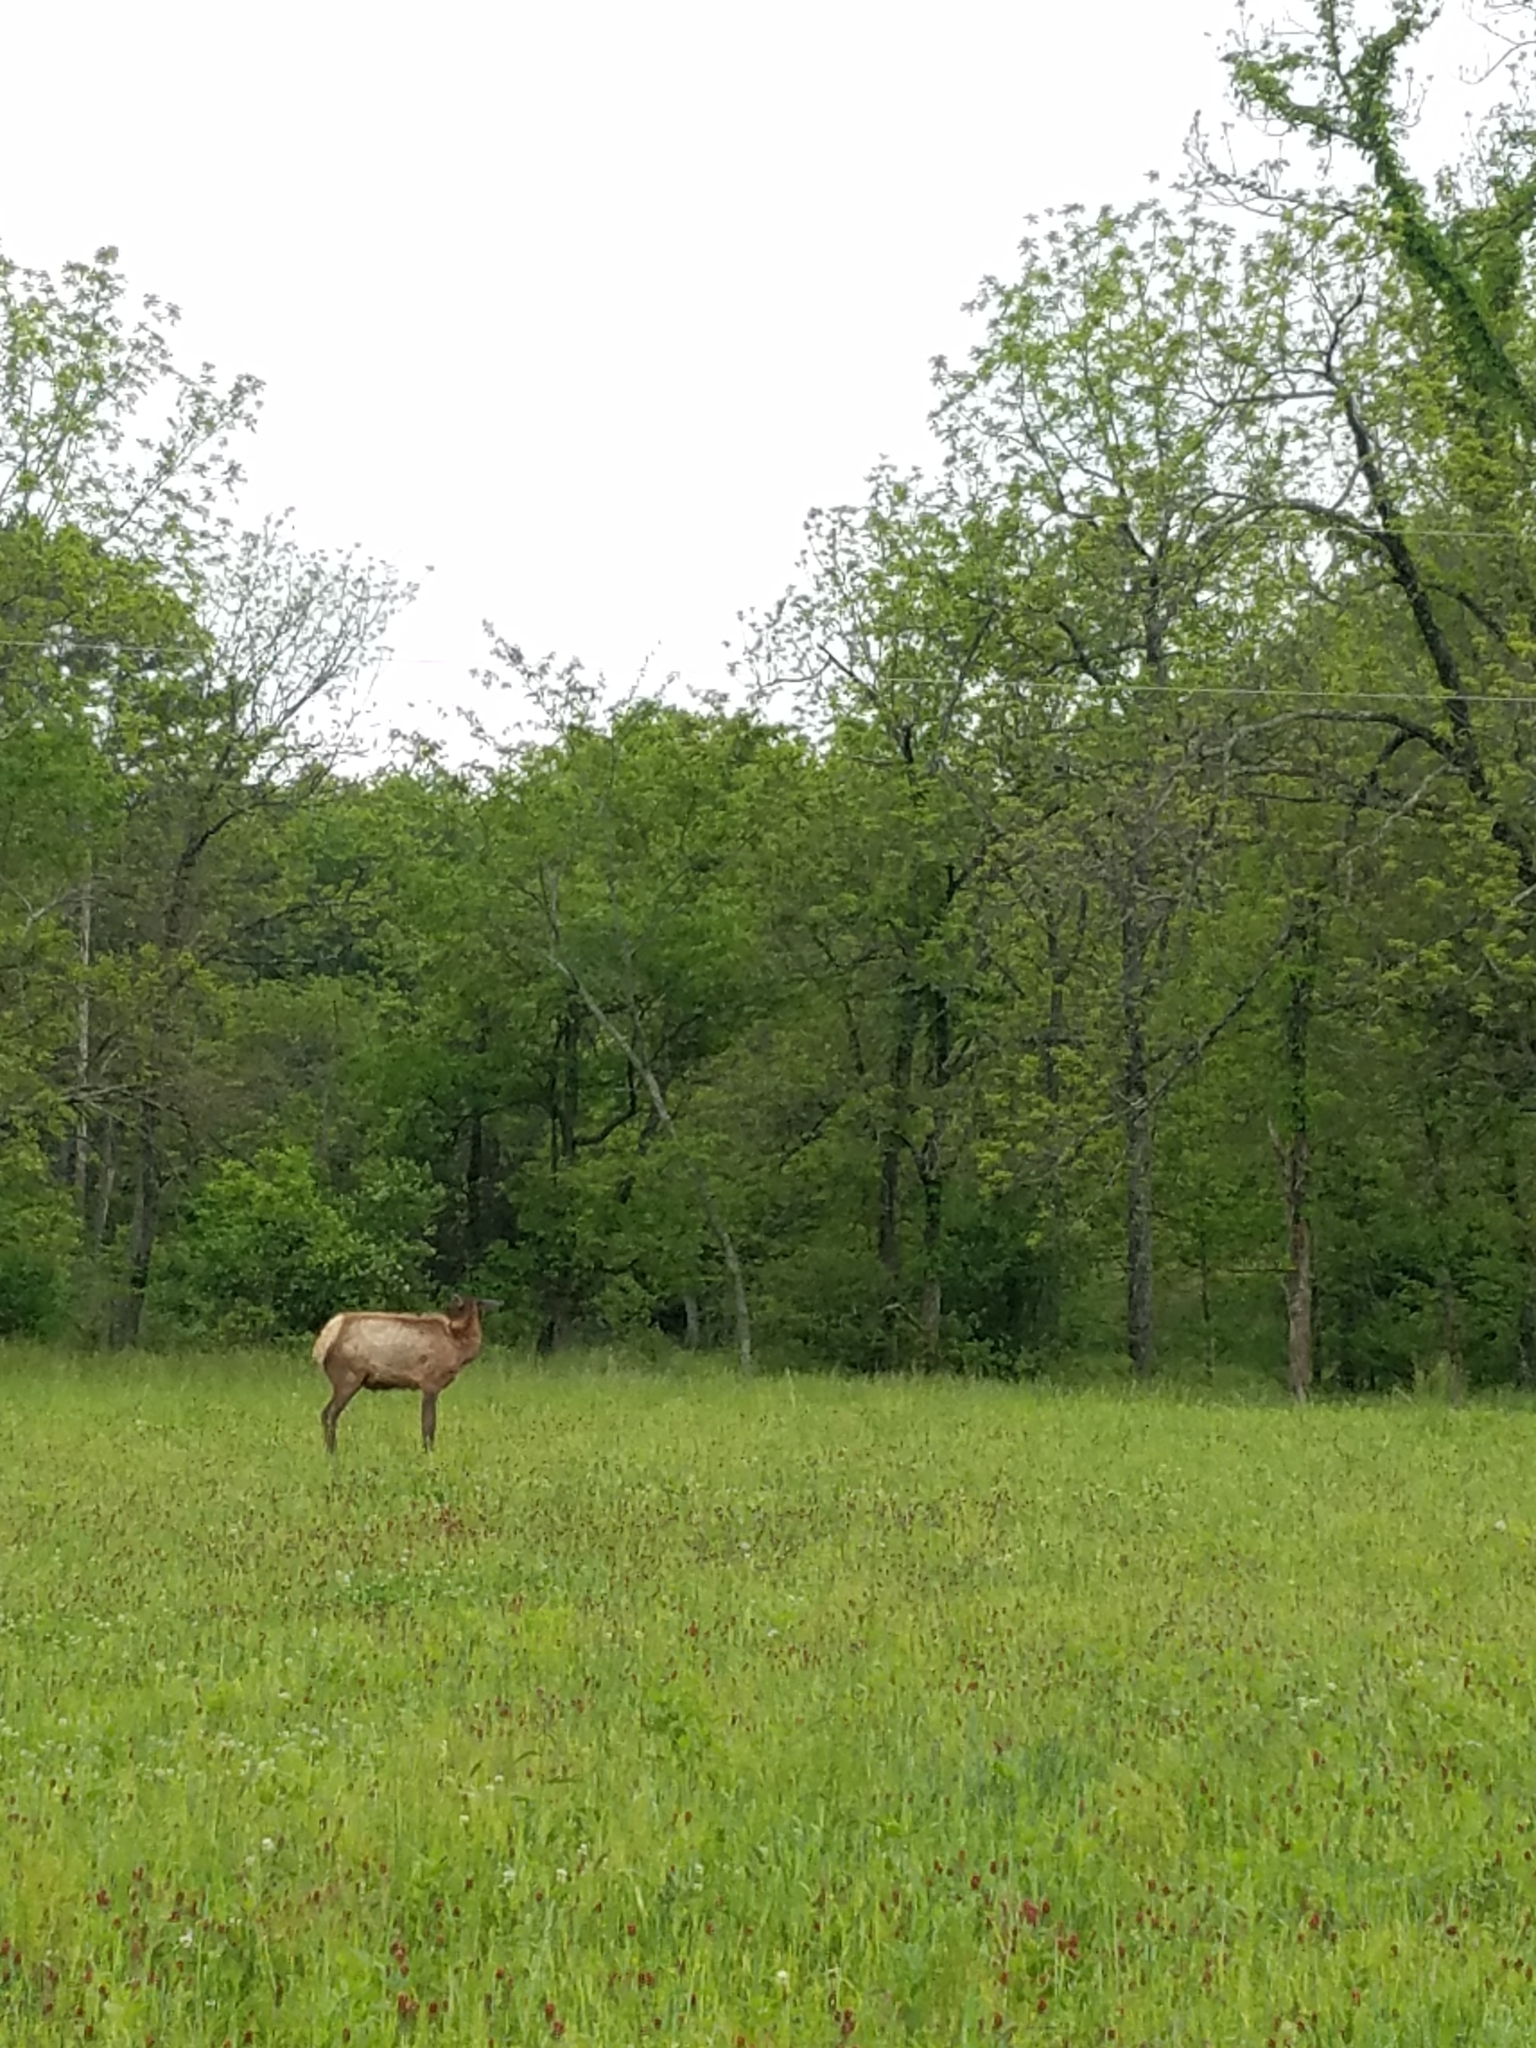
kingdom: Animalia
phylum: Chordata
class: Mammalia
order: Artiodactyla
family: Cervidae
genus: Cervus
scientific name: Cervus elaphus
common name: Red deer
